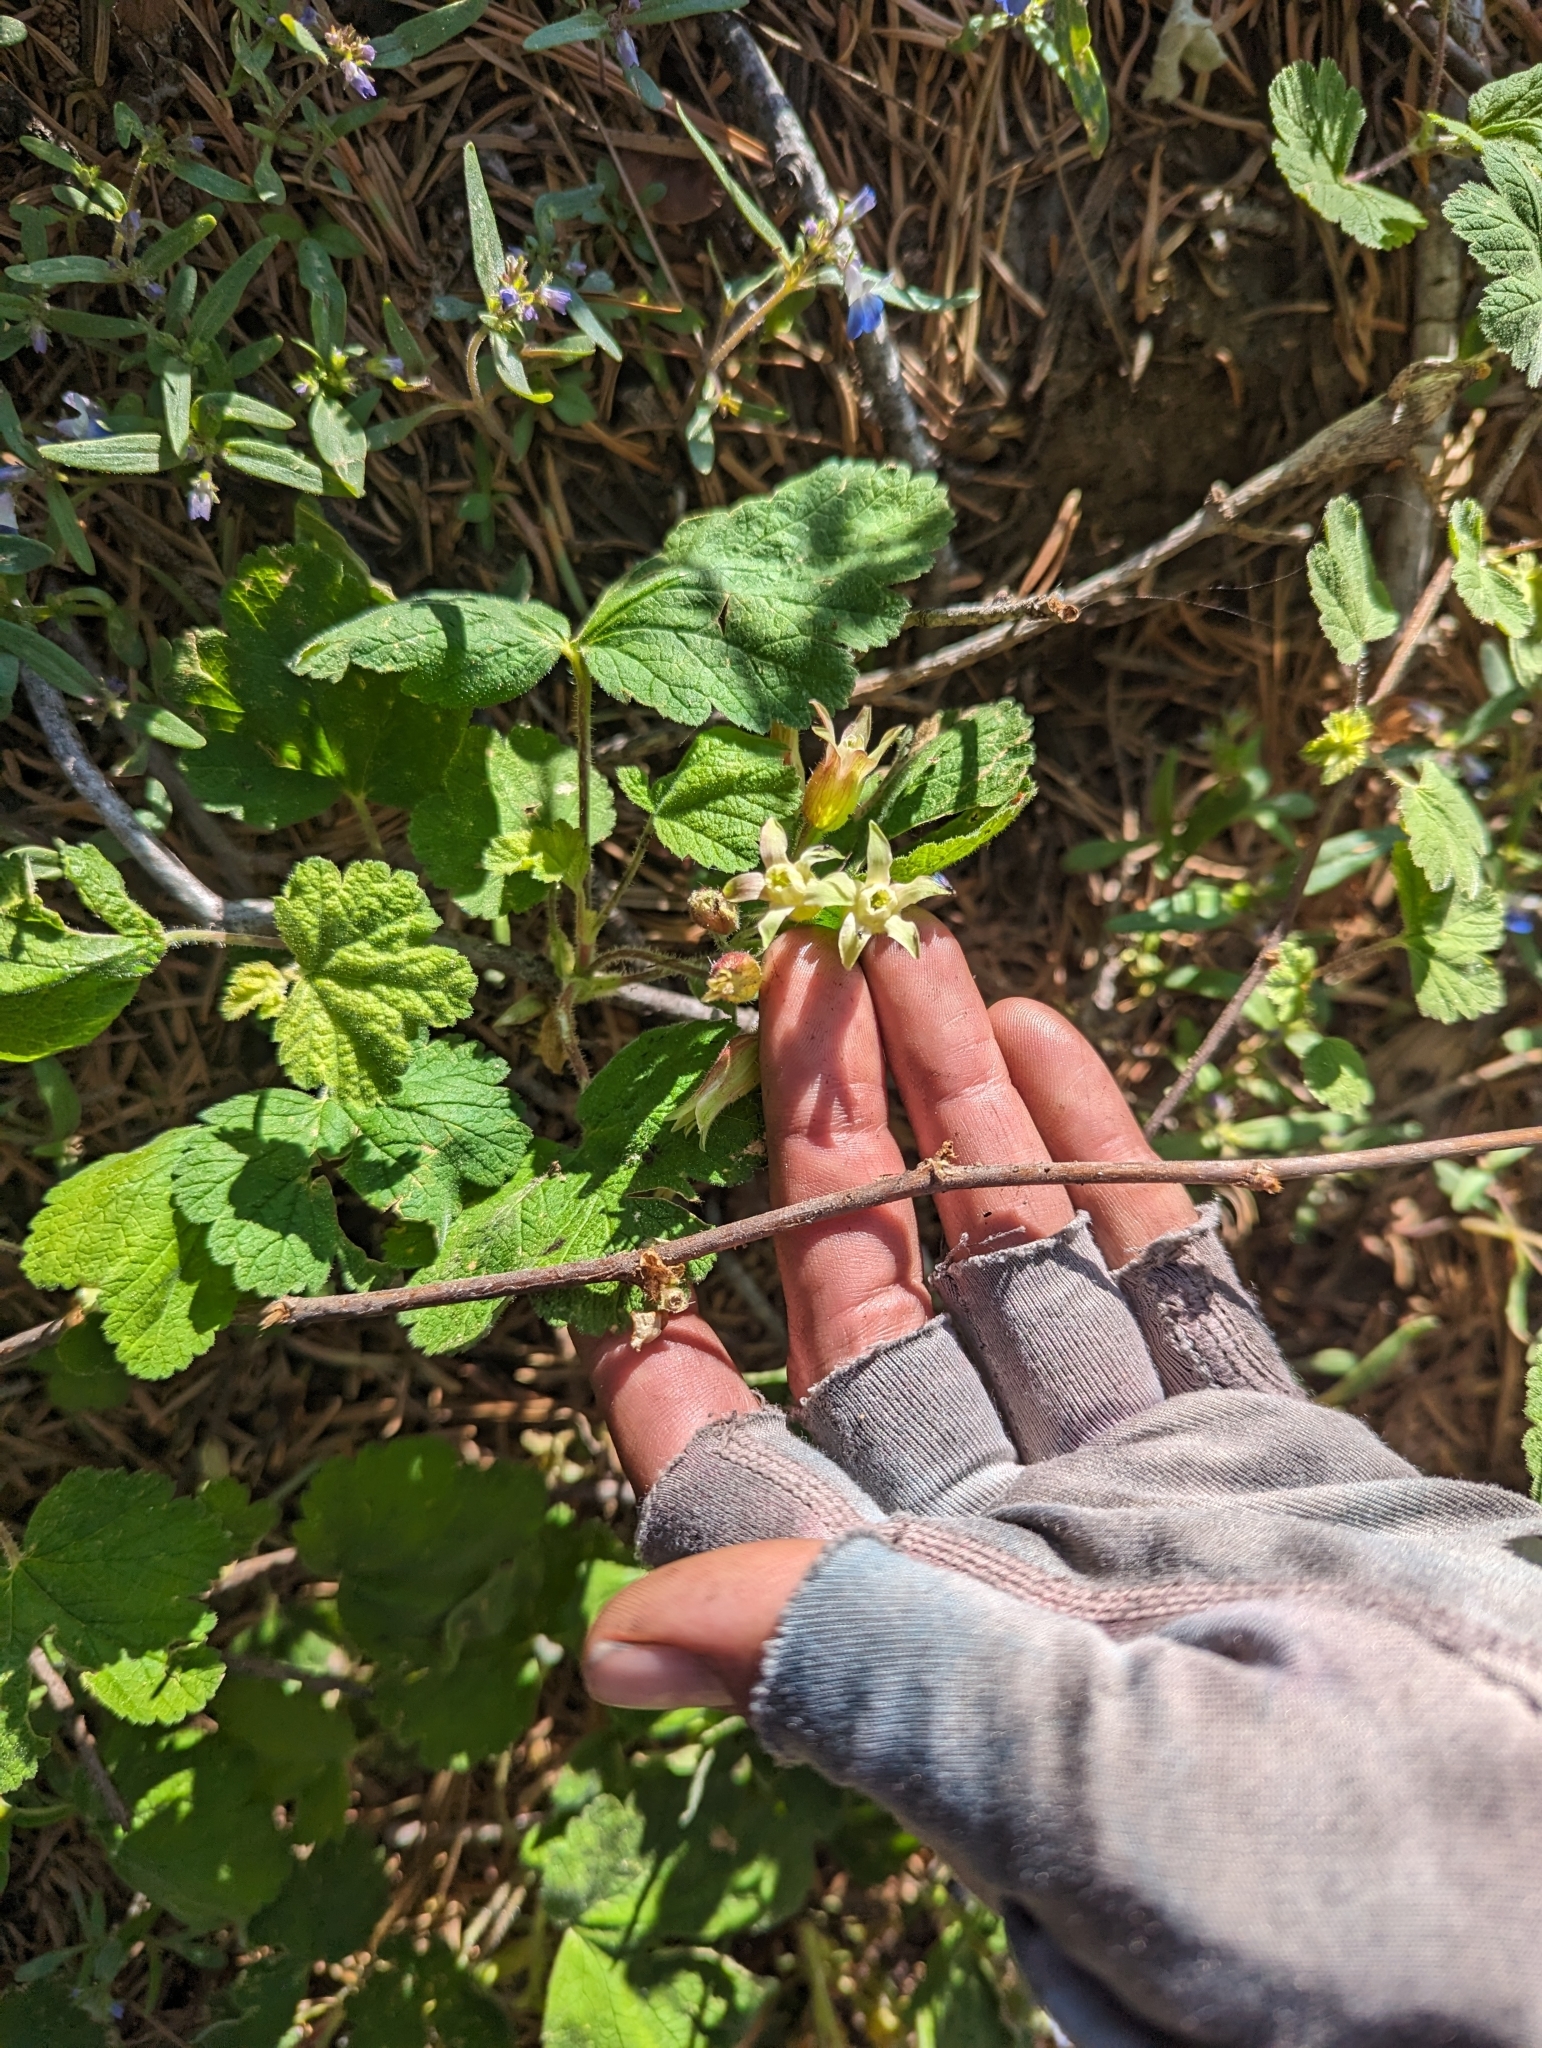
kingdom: Plantae
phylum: Tracheophyta
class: Magnoliopsida
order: Saxifragales
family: Grossulariaceae
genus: Ribes
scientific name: Ribes viscosissimum
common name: Sticky currant
